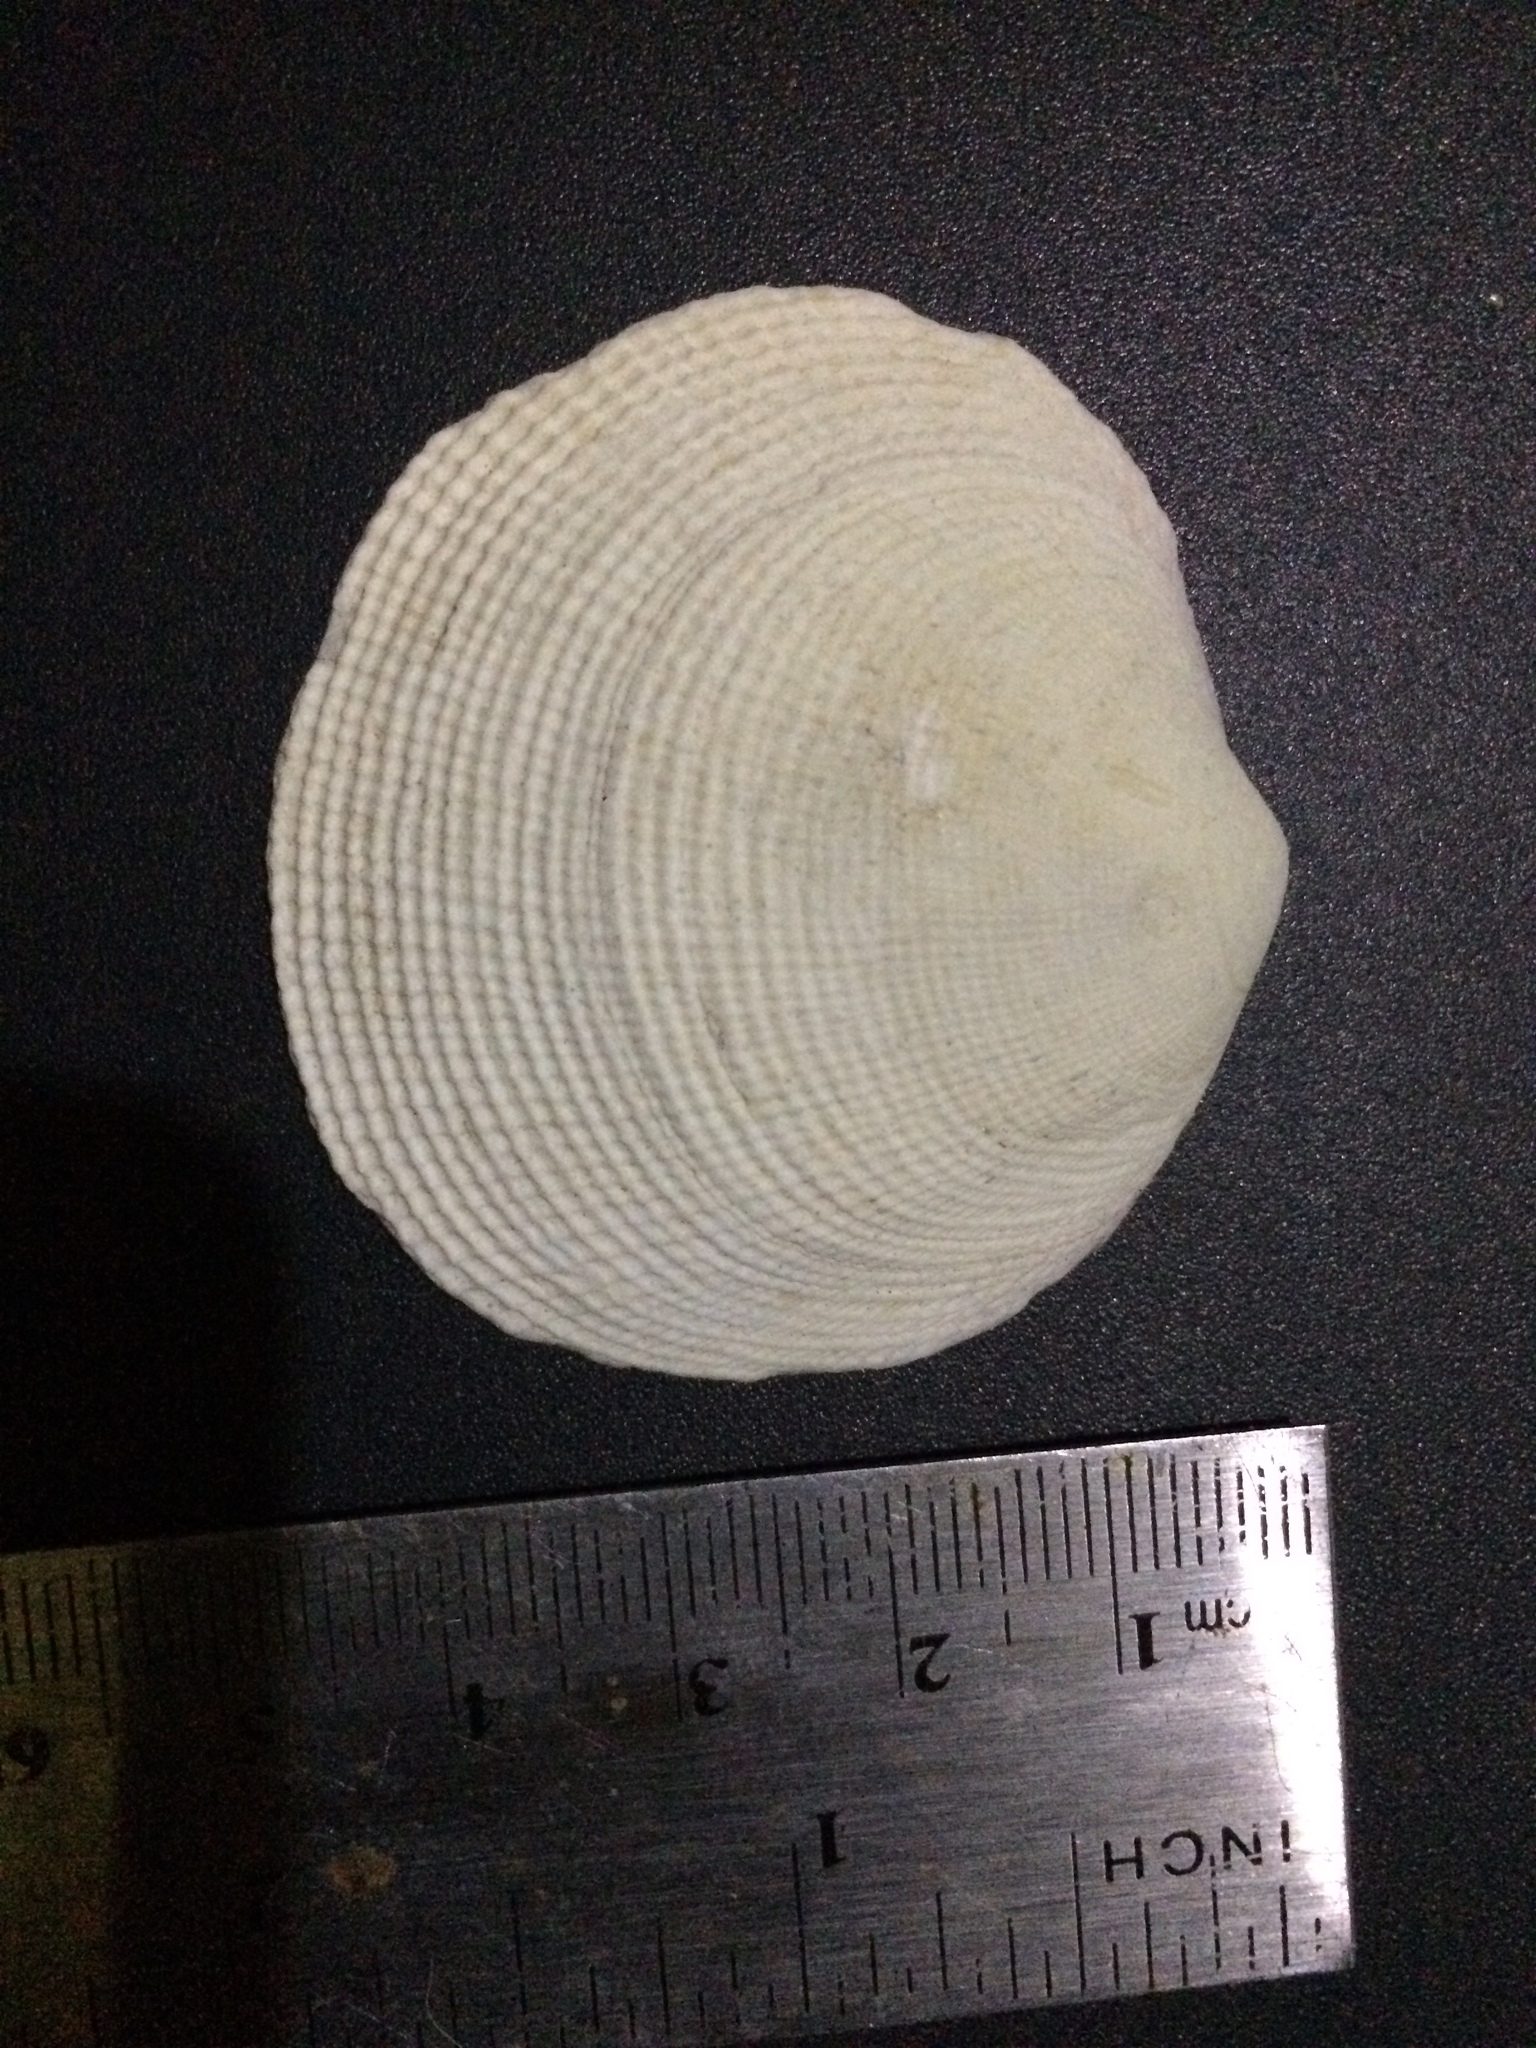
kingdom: Animalia
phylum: Mollusca
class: Bivalvia
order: Lucinida
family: Lucinidae
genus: Codakia
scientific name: Codakia tigerina
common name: Pacific tiger lucine
